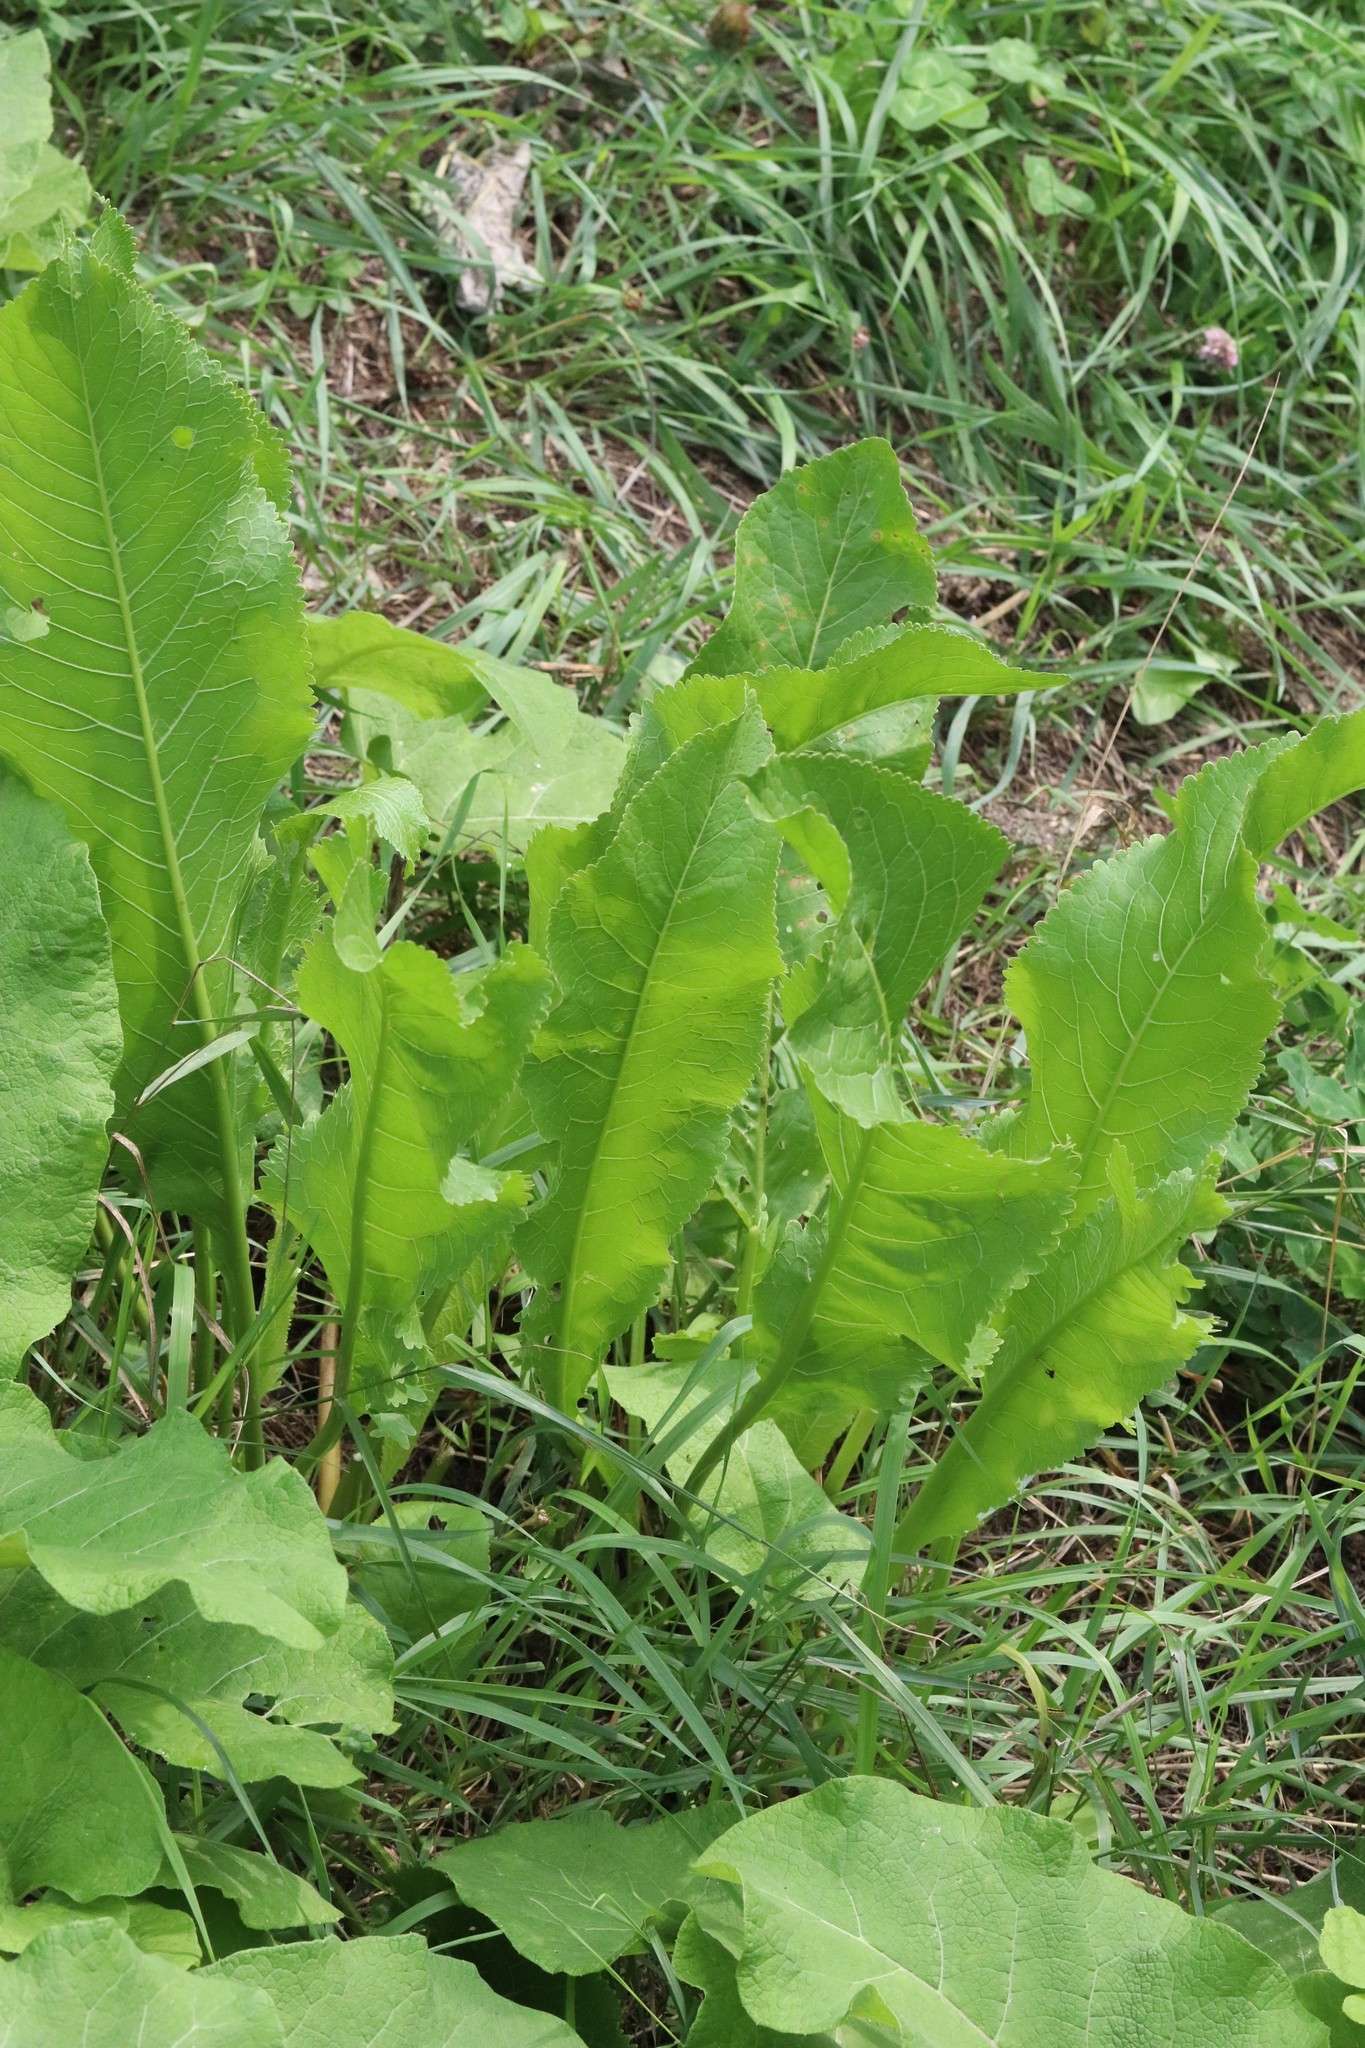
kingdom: Plantae
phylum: Tracheophyta
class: Magnoliopsida
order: Brassicales
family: Brassicaceae
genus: Armoracia
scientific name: Armoracia rusticana
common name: Horseradish
